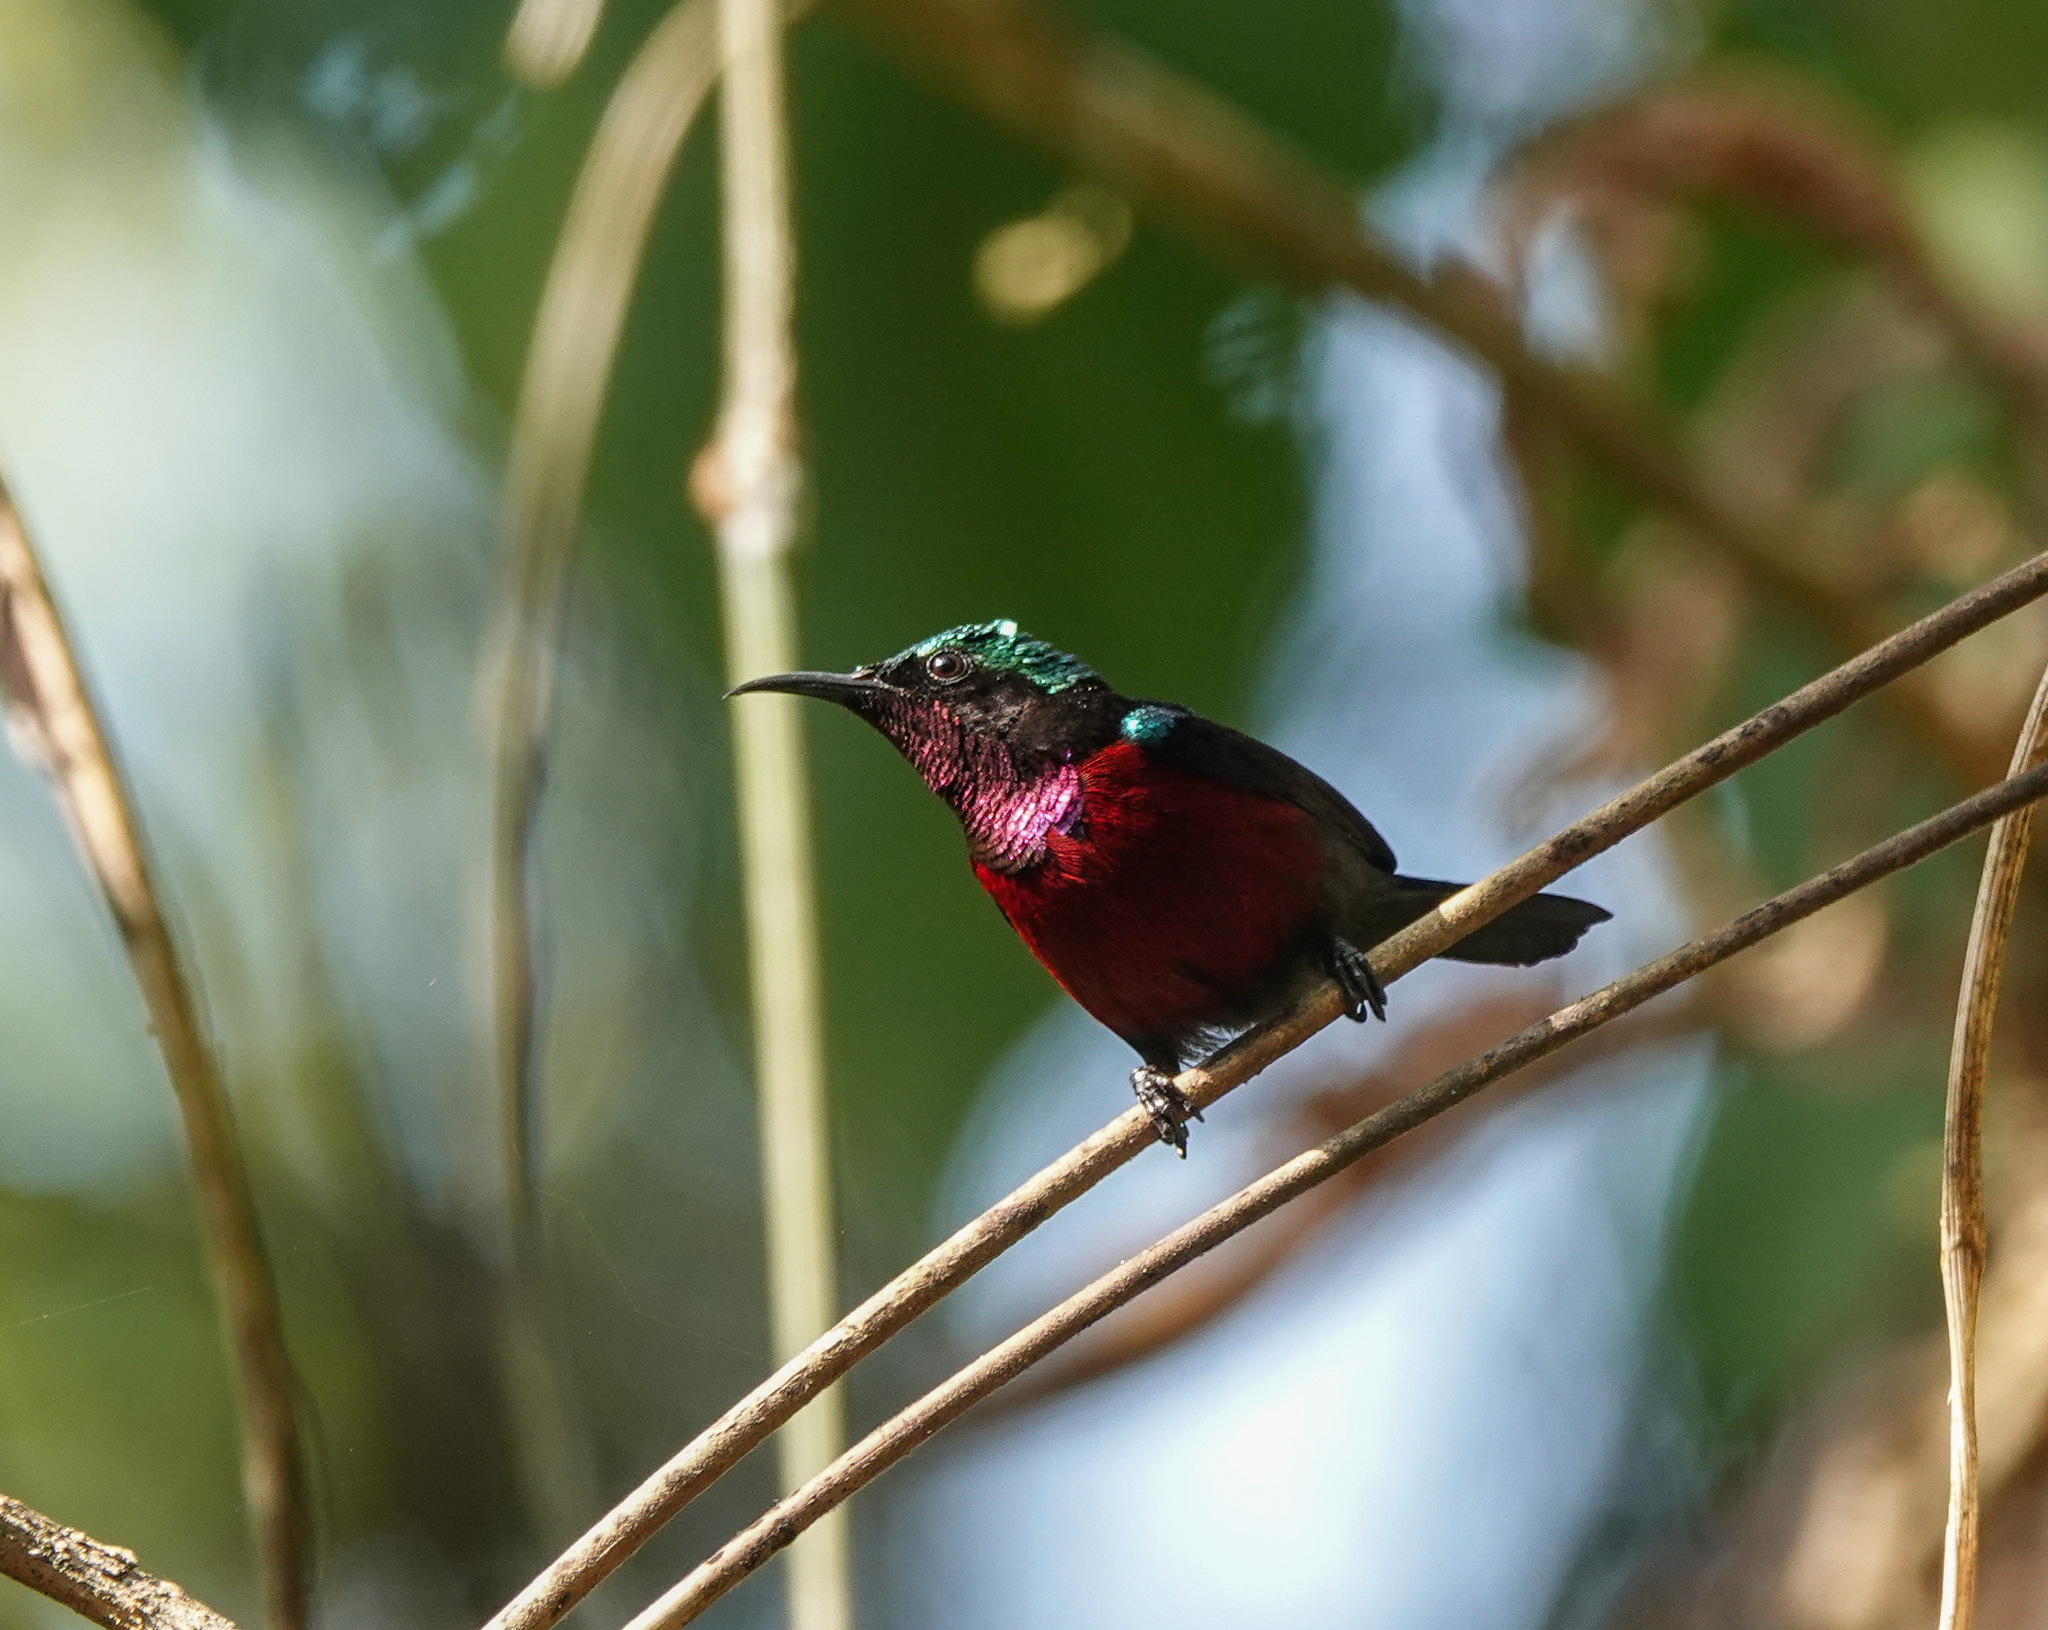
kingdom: Animalia
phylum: Chordata
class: Aves
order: Passeriformes
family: Nectariniidae
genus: Leptocoma
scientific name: Leptocoma brasiliana
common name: Van hasselt's sunbird
